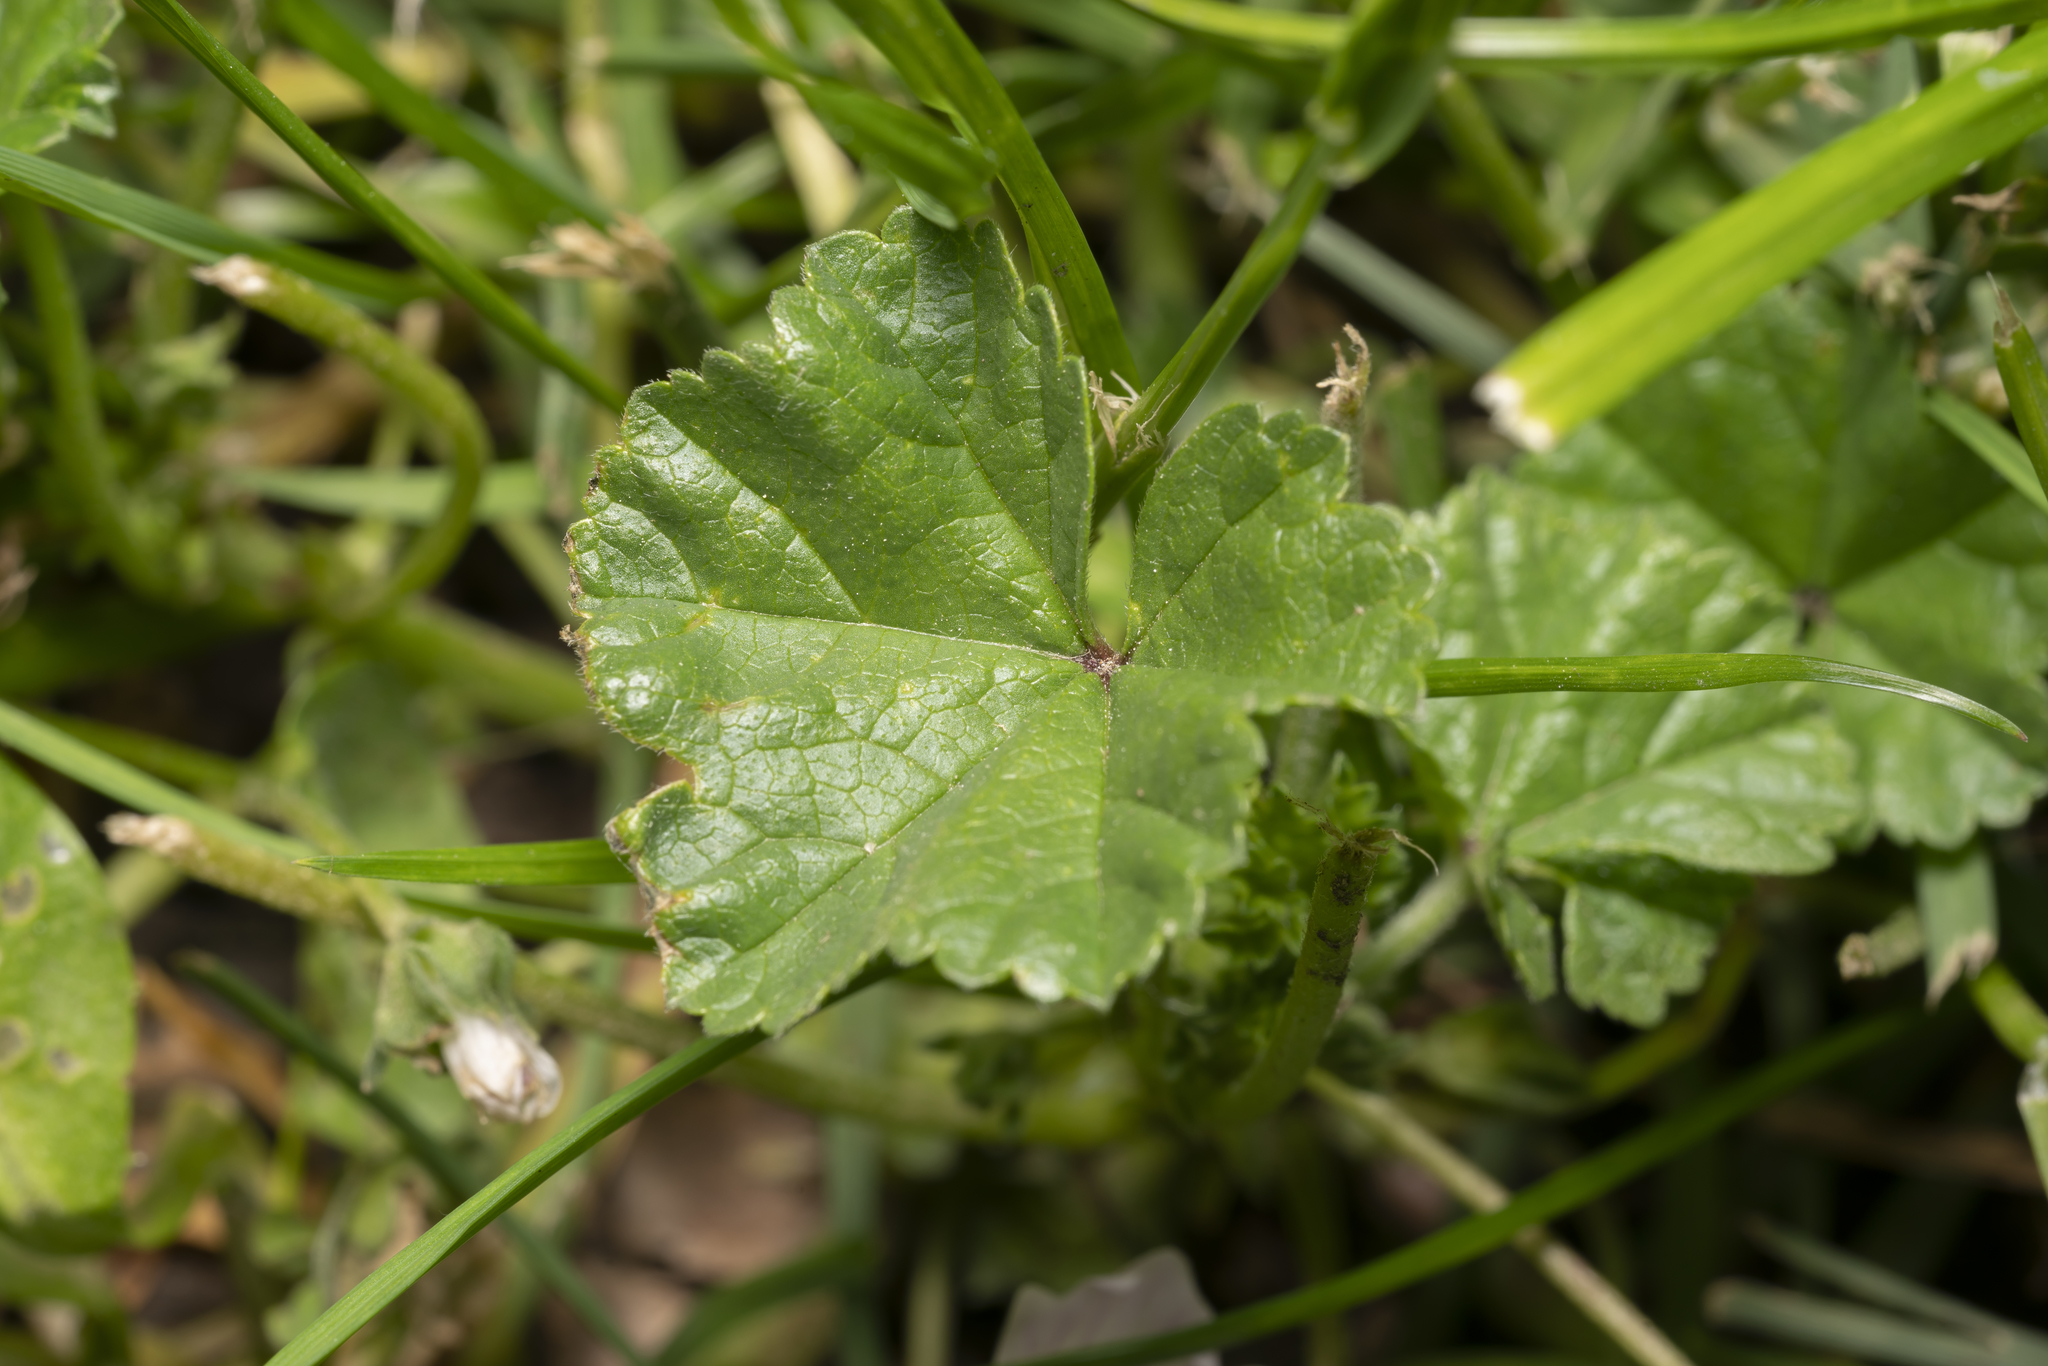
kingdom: Plantae
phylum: Tracheophyta
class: Magnoliopsida
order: Malvales
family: Malvaceae
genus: Malva
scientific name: Malva neglecta
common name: Common mallow
